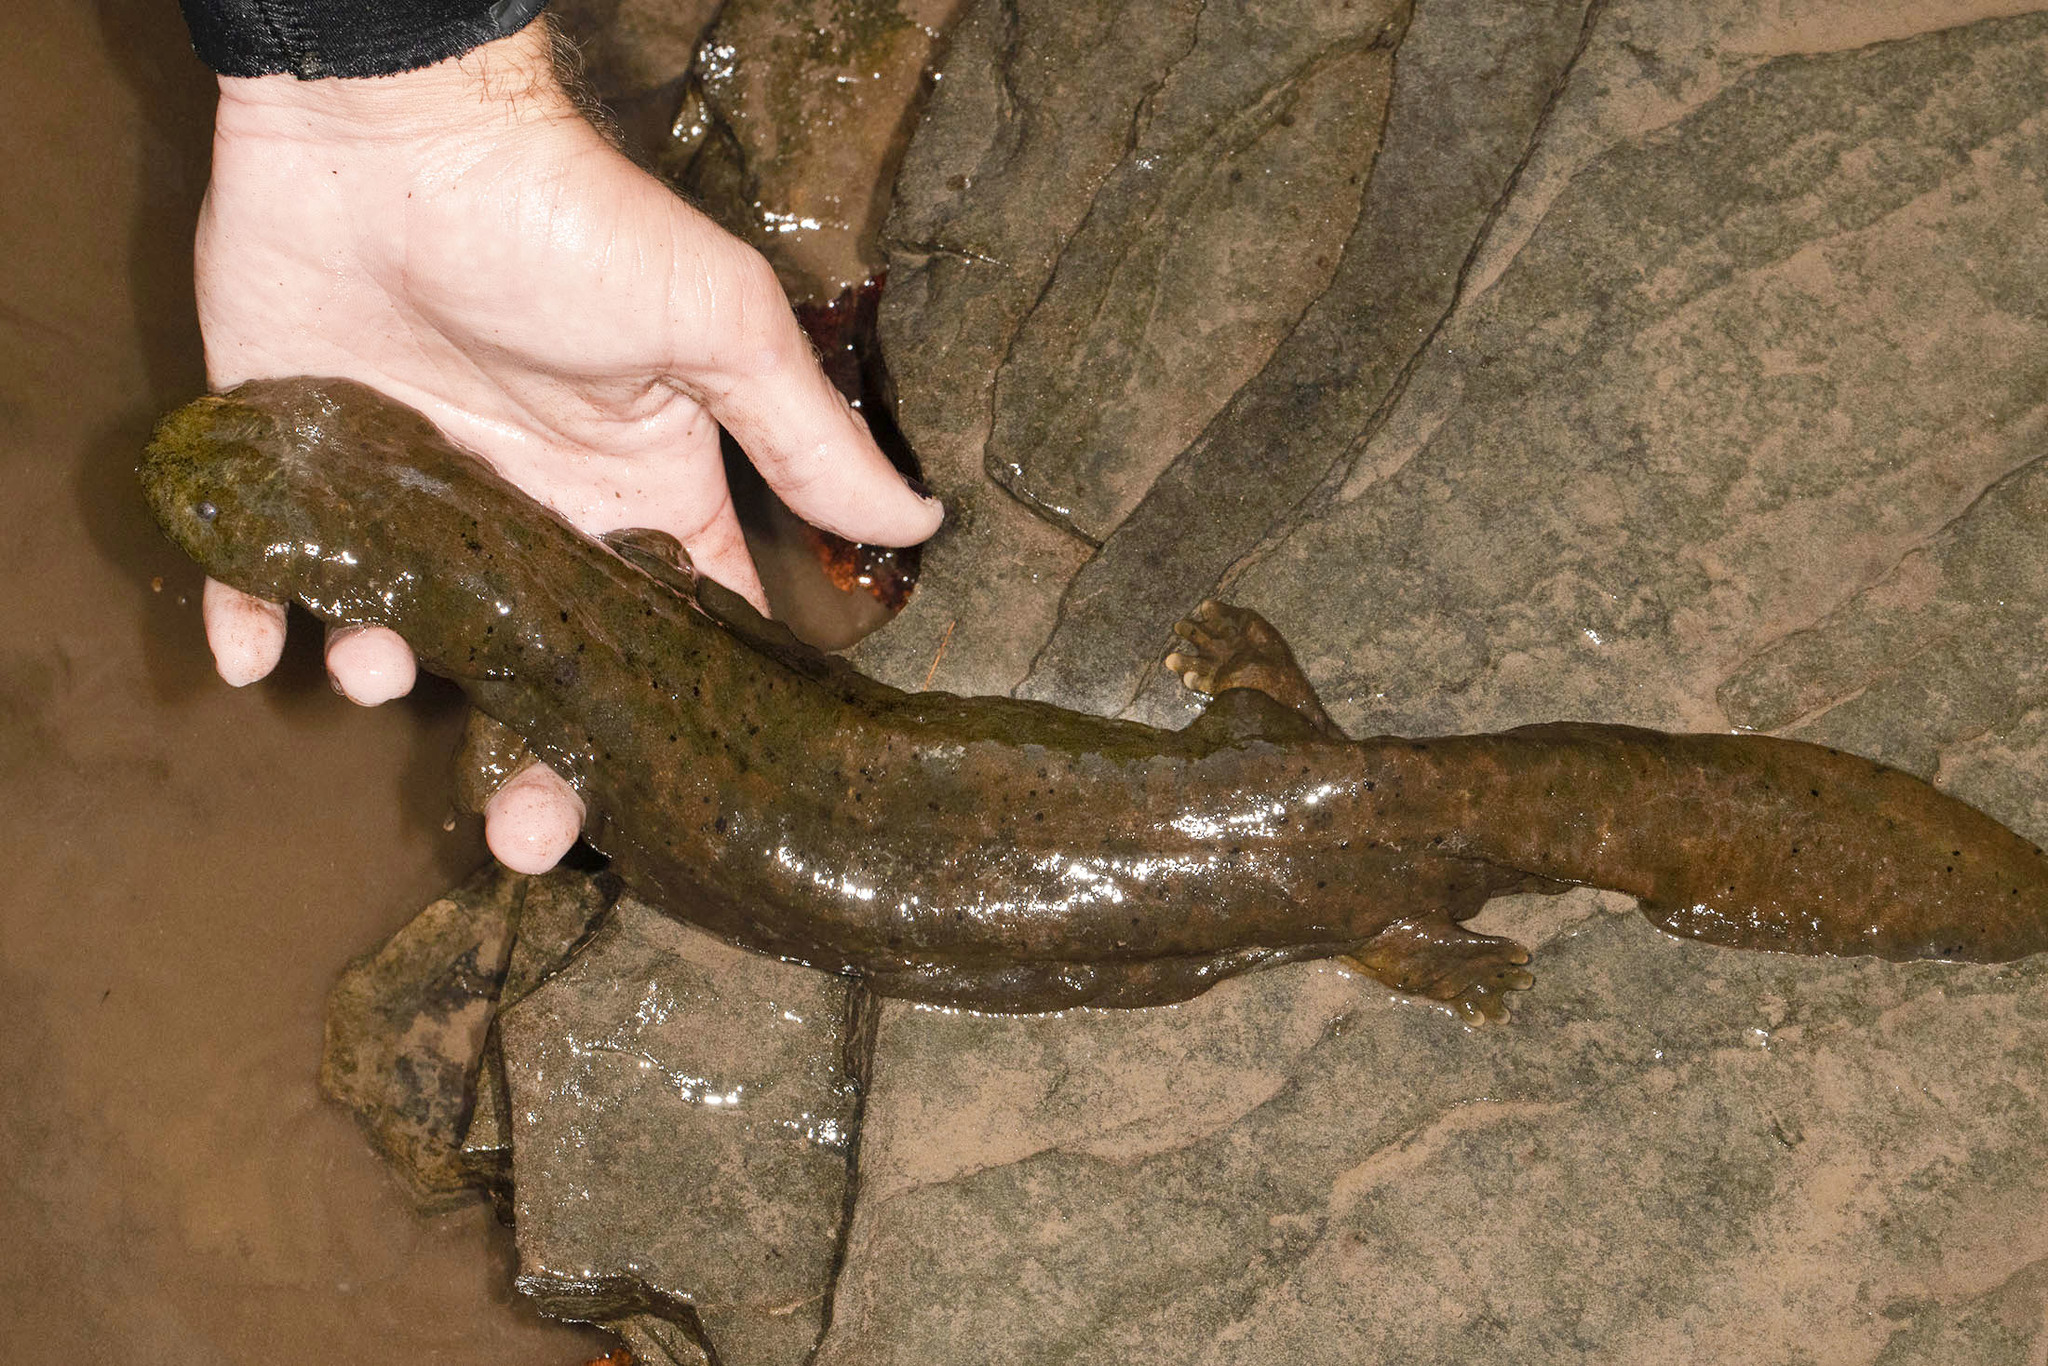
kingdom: Animalia
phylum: Chordata
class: Amphibia
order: Caudata
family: Cryptobranchidae
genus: Cryptobranchus
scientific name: Cryptobranchus alleganiensis
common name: Hellbender
